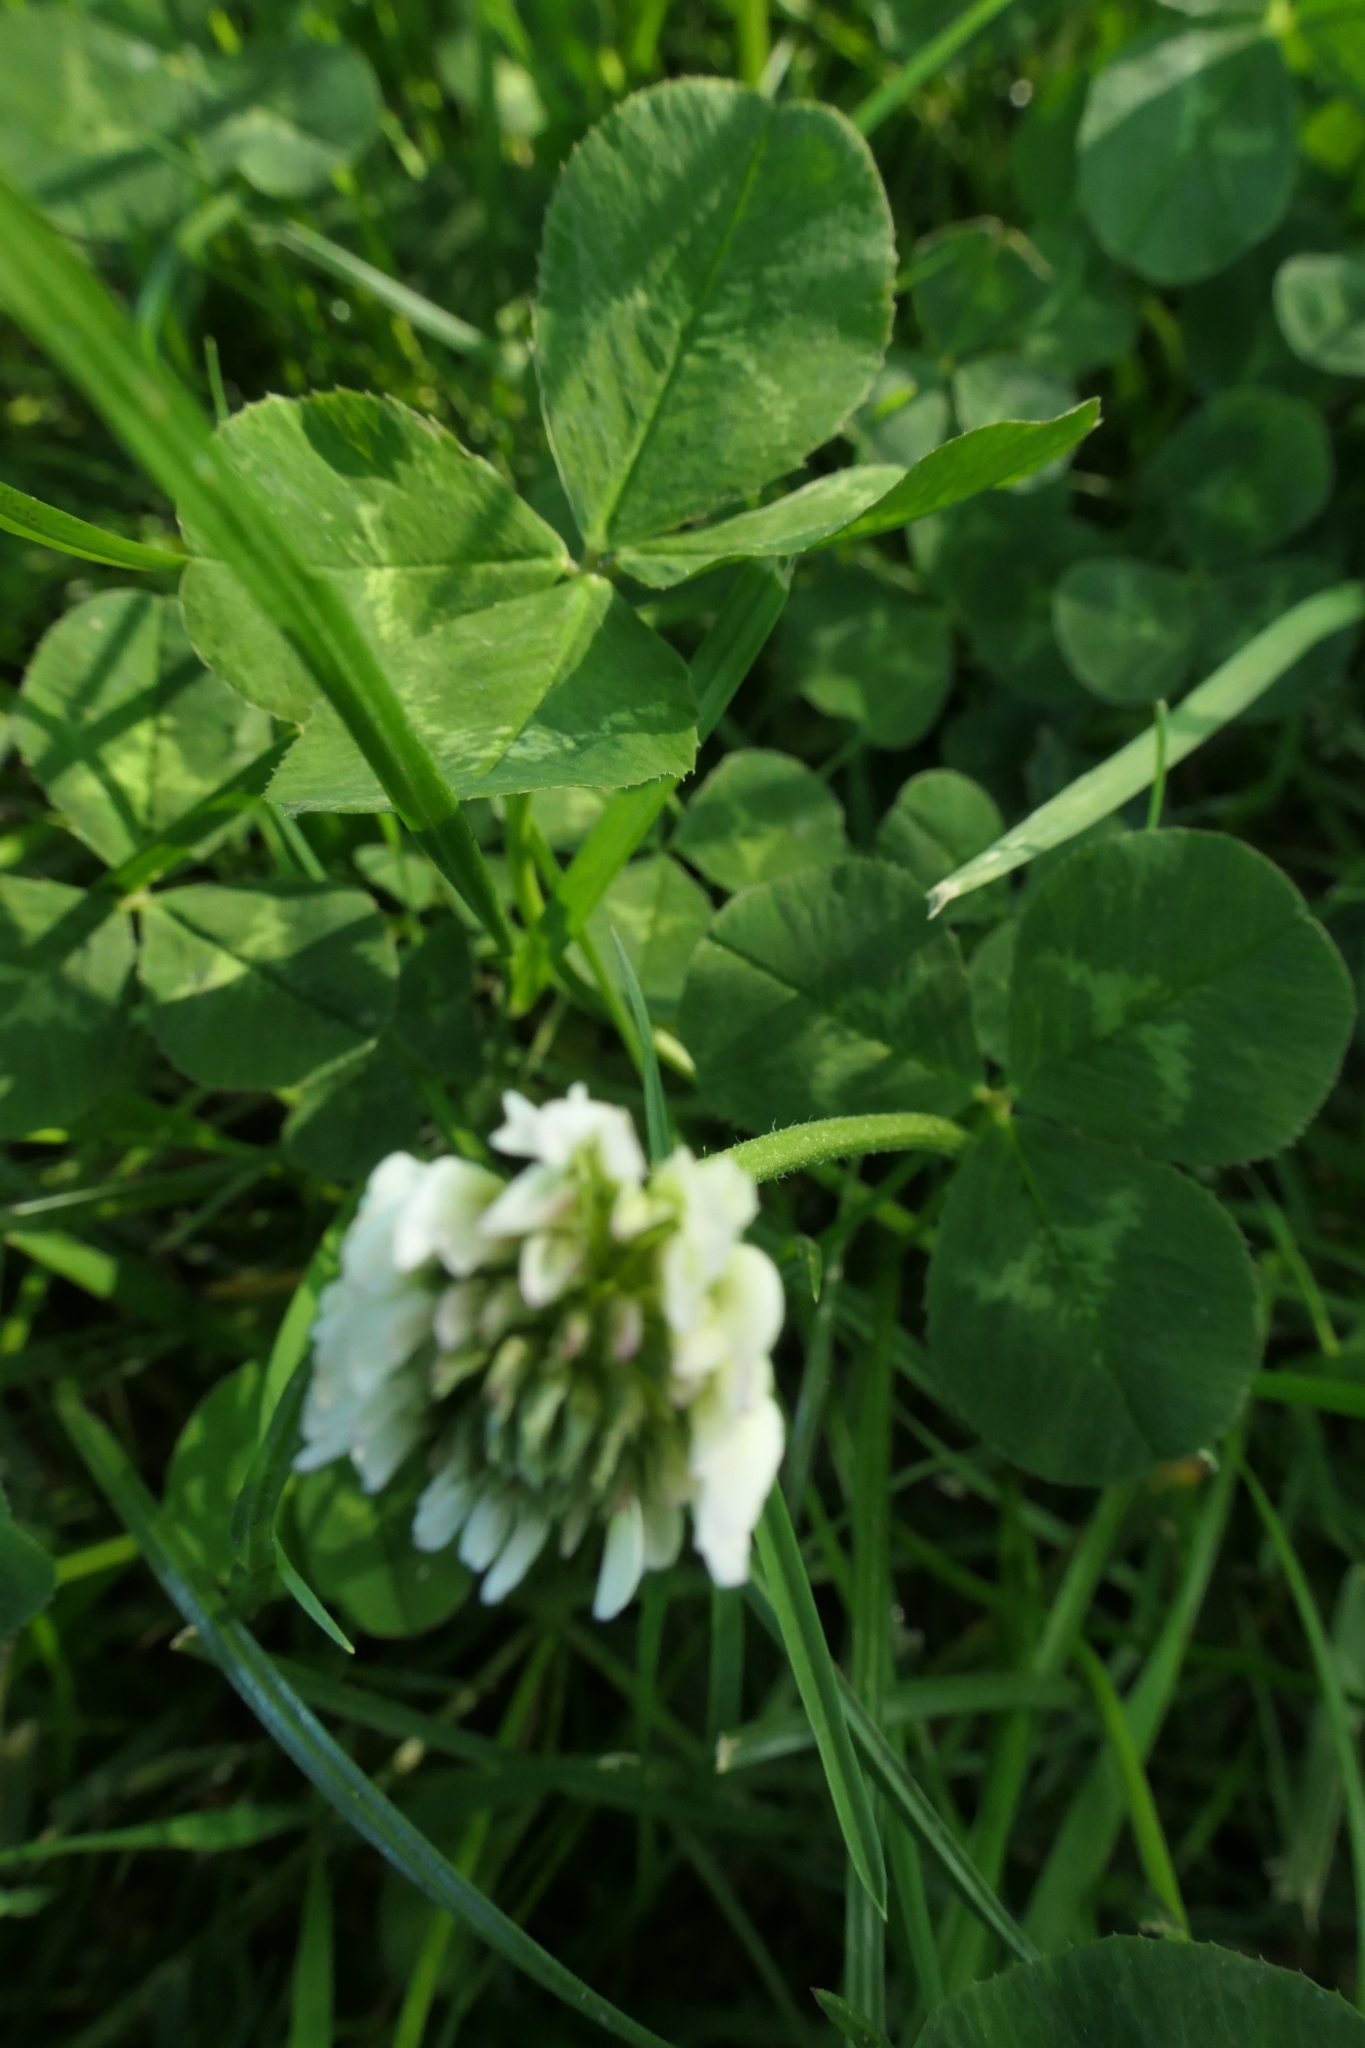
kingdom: Plantae
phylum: Tracheophyta
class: Magnoliopsida
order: Fabales
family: Fabaceae
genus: Trifolium
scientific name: Trifolium repens
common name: White clover
